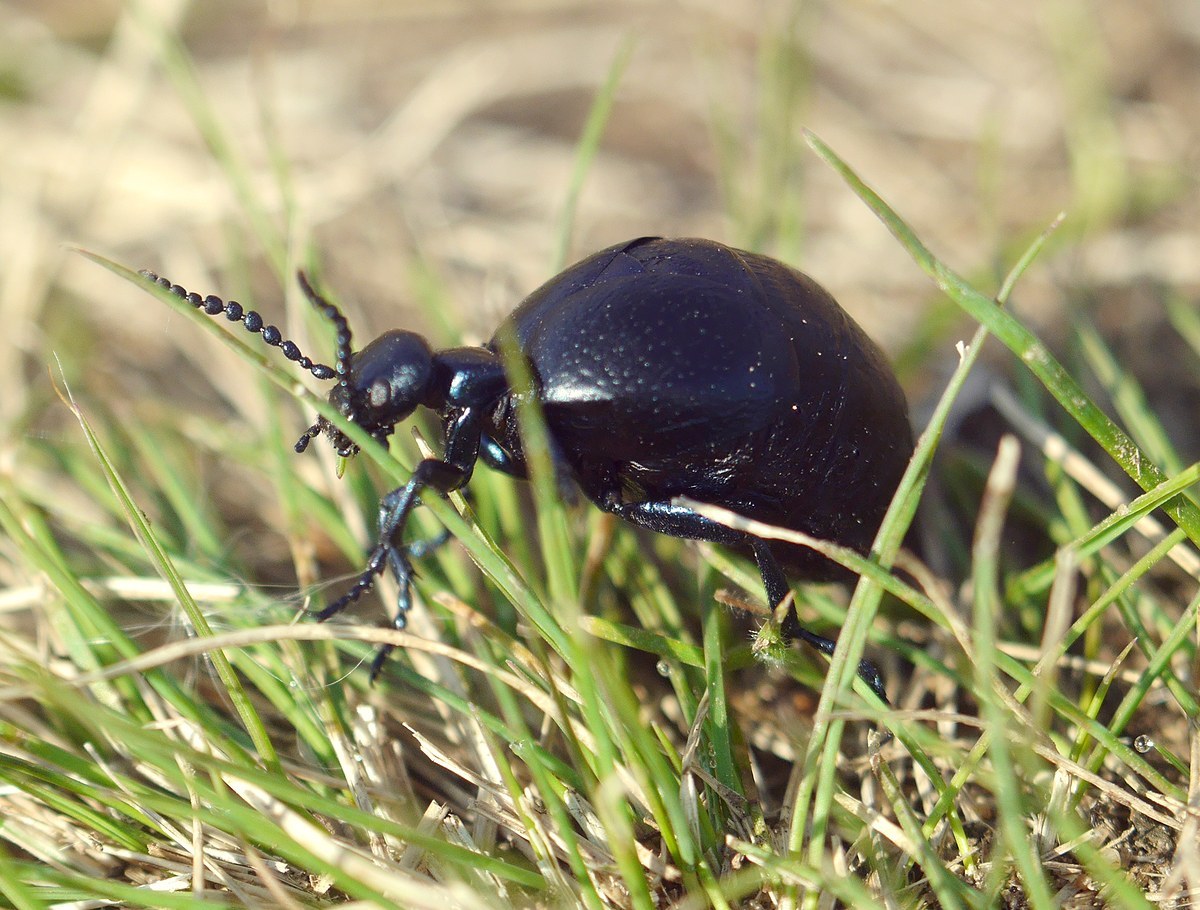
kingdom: Animalia
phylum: Arthropoda
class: Insecta
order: Coleoptera
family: Meloidae
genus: Meloe
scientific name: Meloe autumnalis
